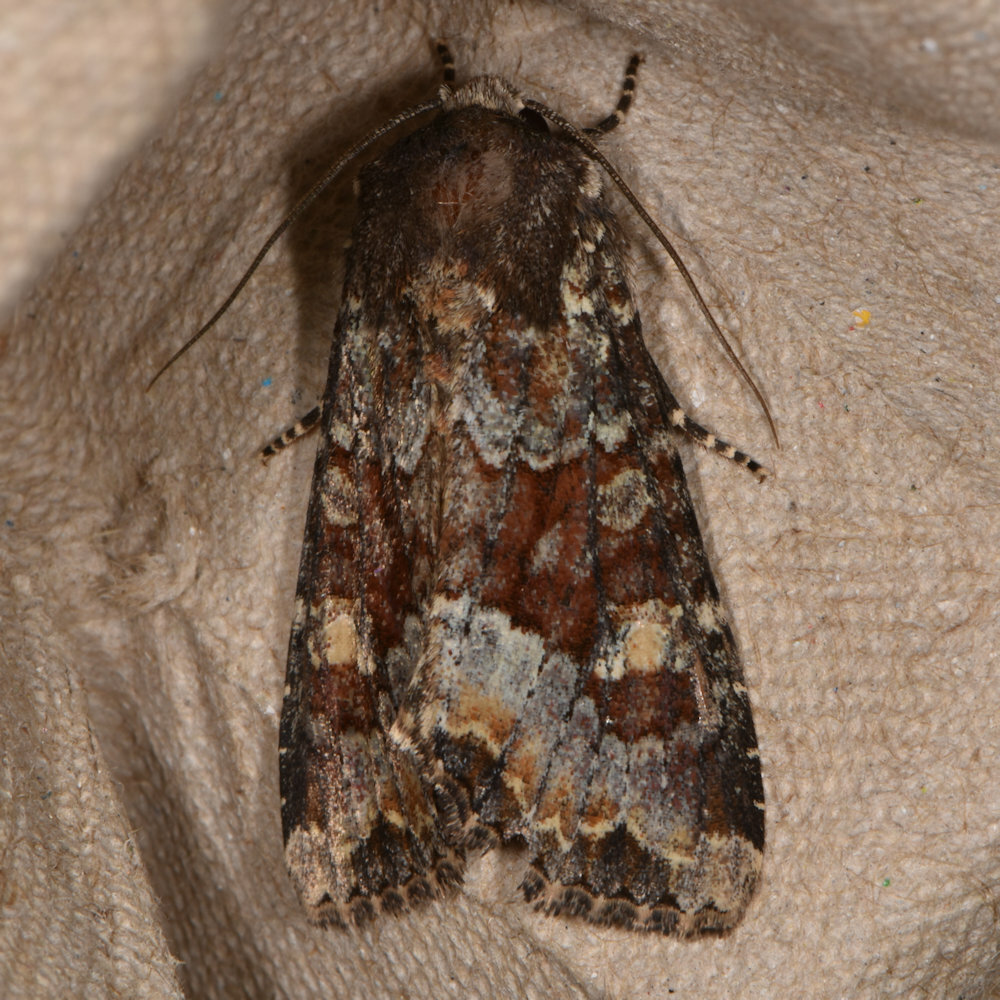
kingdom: Animalia
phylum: Arthropoda
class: Insecta
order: Lepidoptera
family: Noctuidae
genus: Apamea
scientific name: Apamea amputatrix
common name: Yellow-headed cutworm moth
